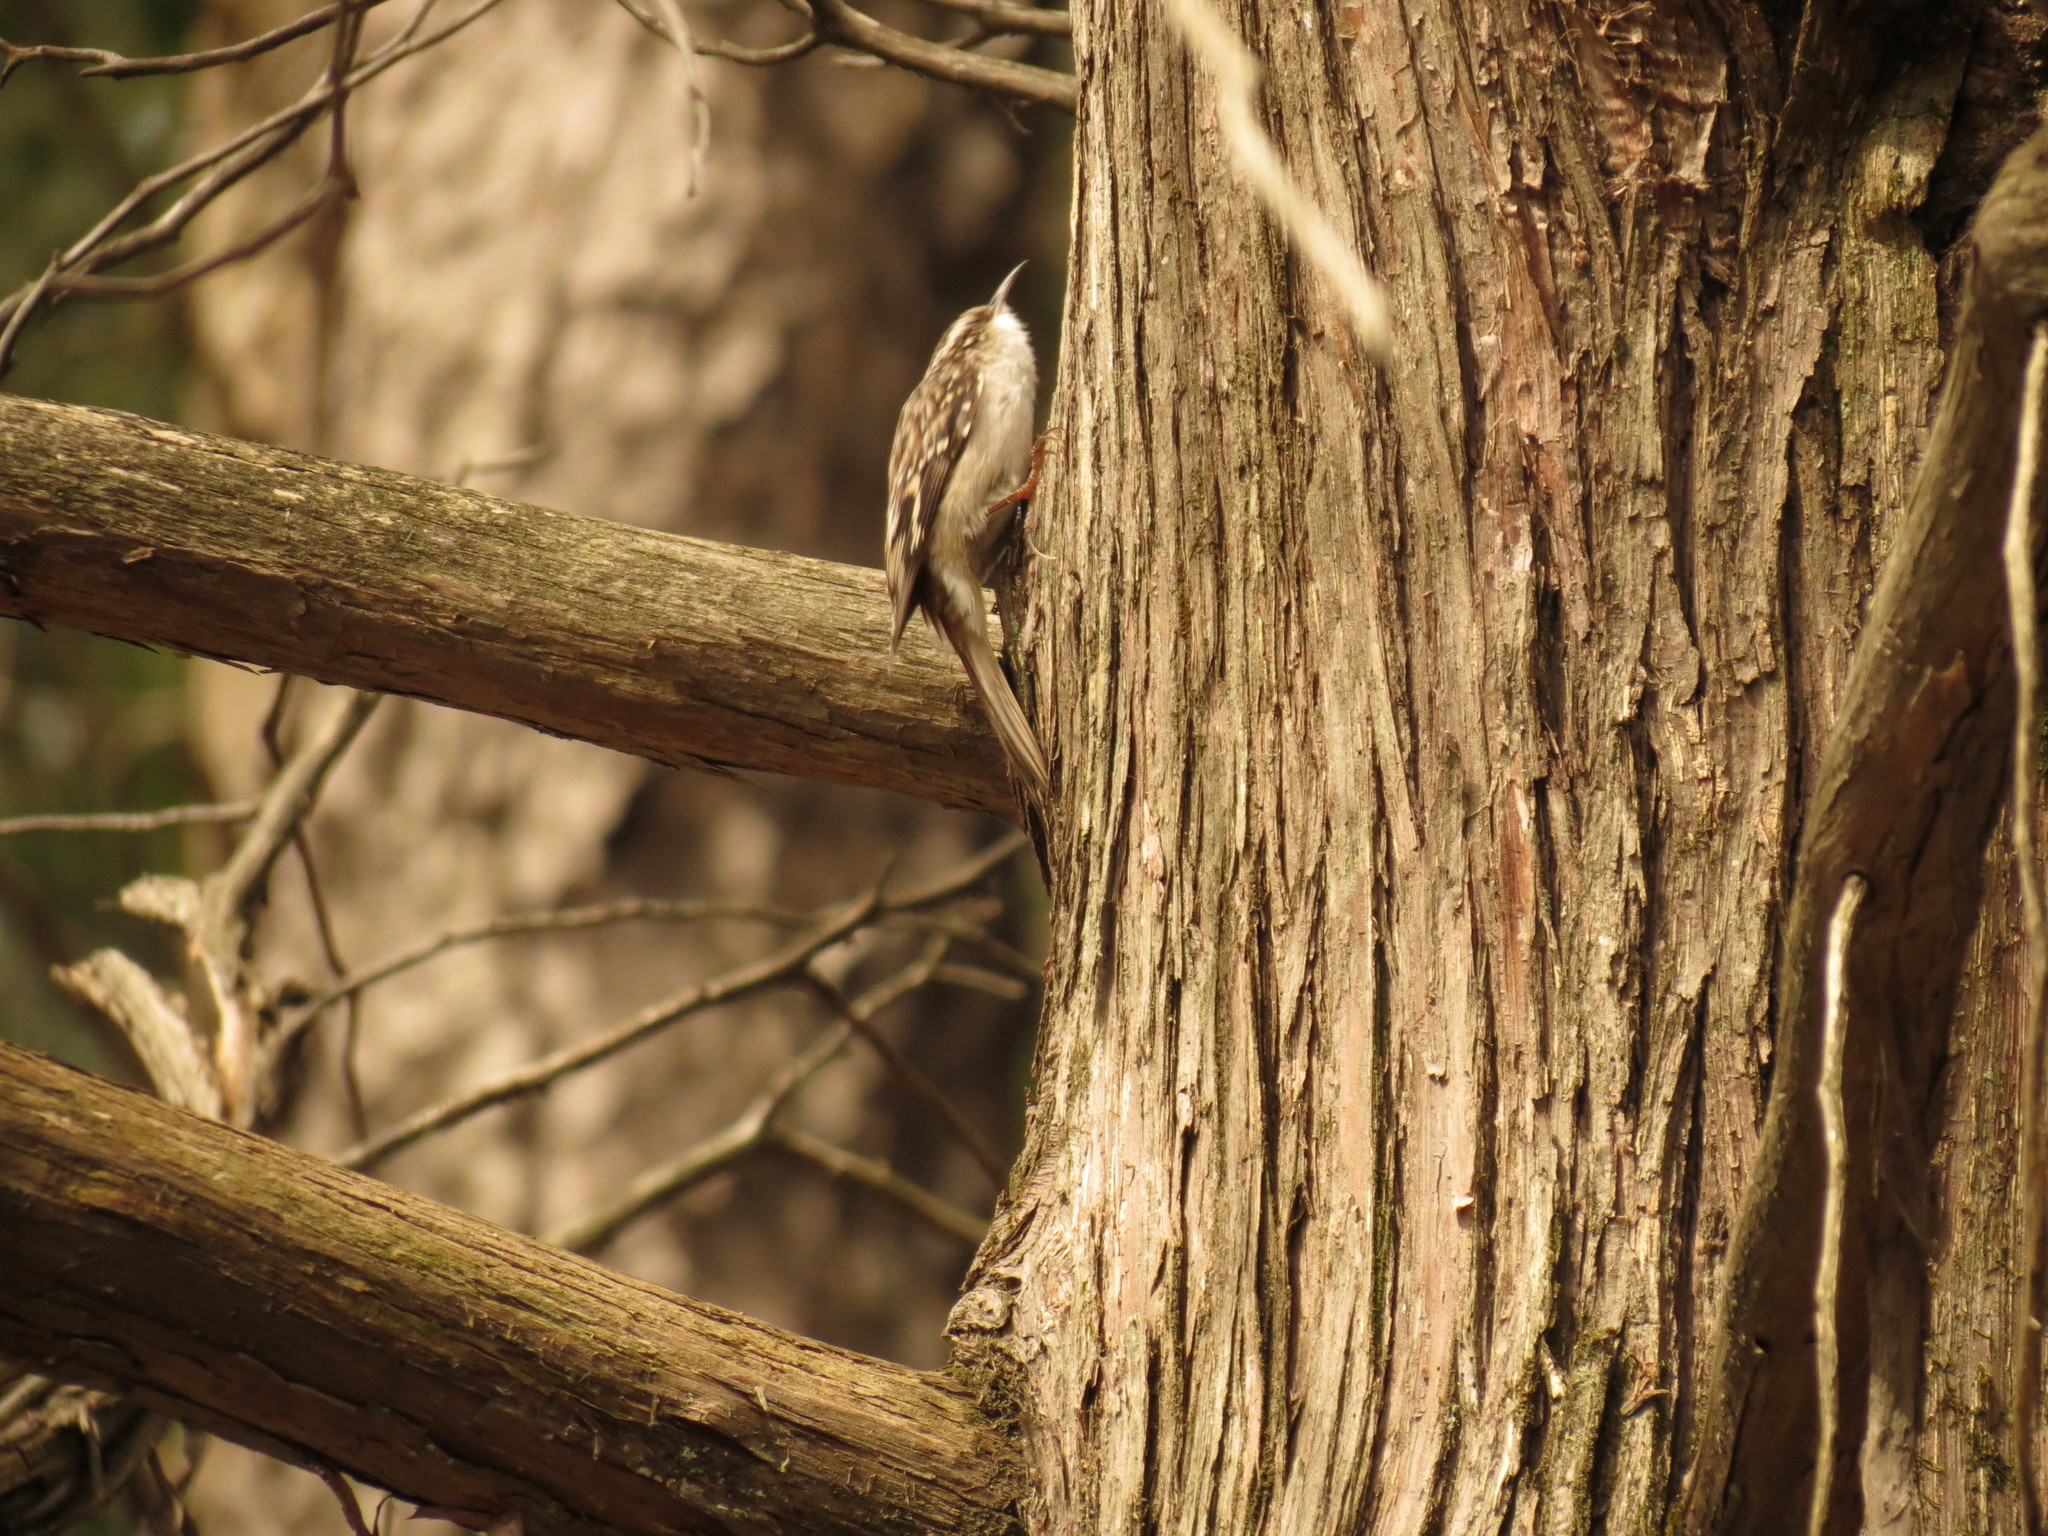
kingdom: Animalia
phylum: Chordata
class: Aves
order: Passeriformes
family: Certhiidae
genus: Certhia
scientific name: Certhia americana
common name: Brown creeper
